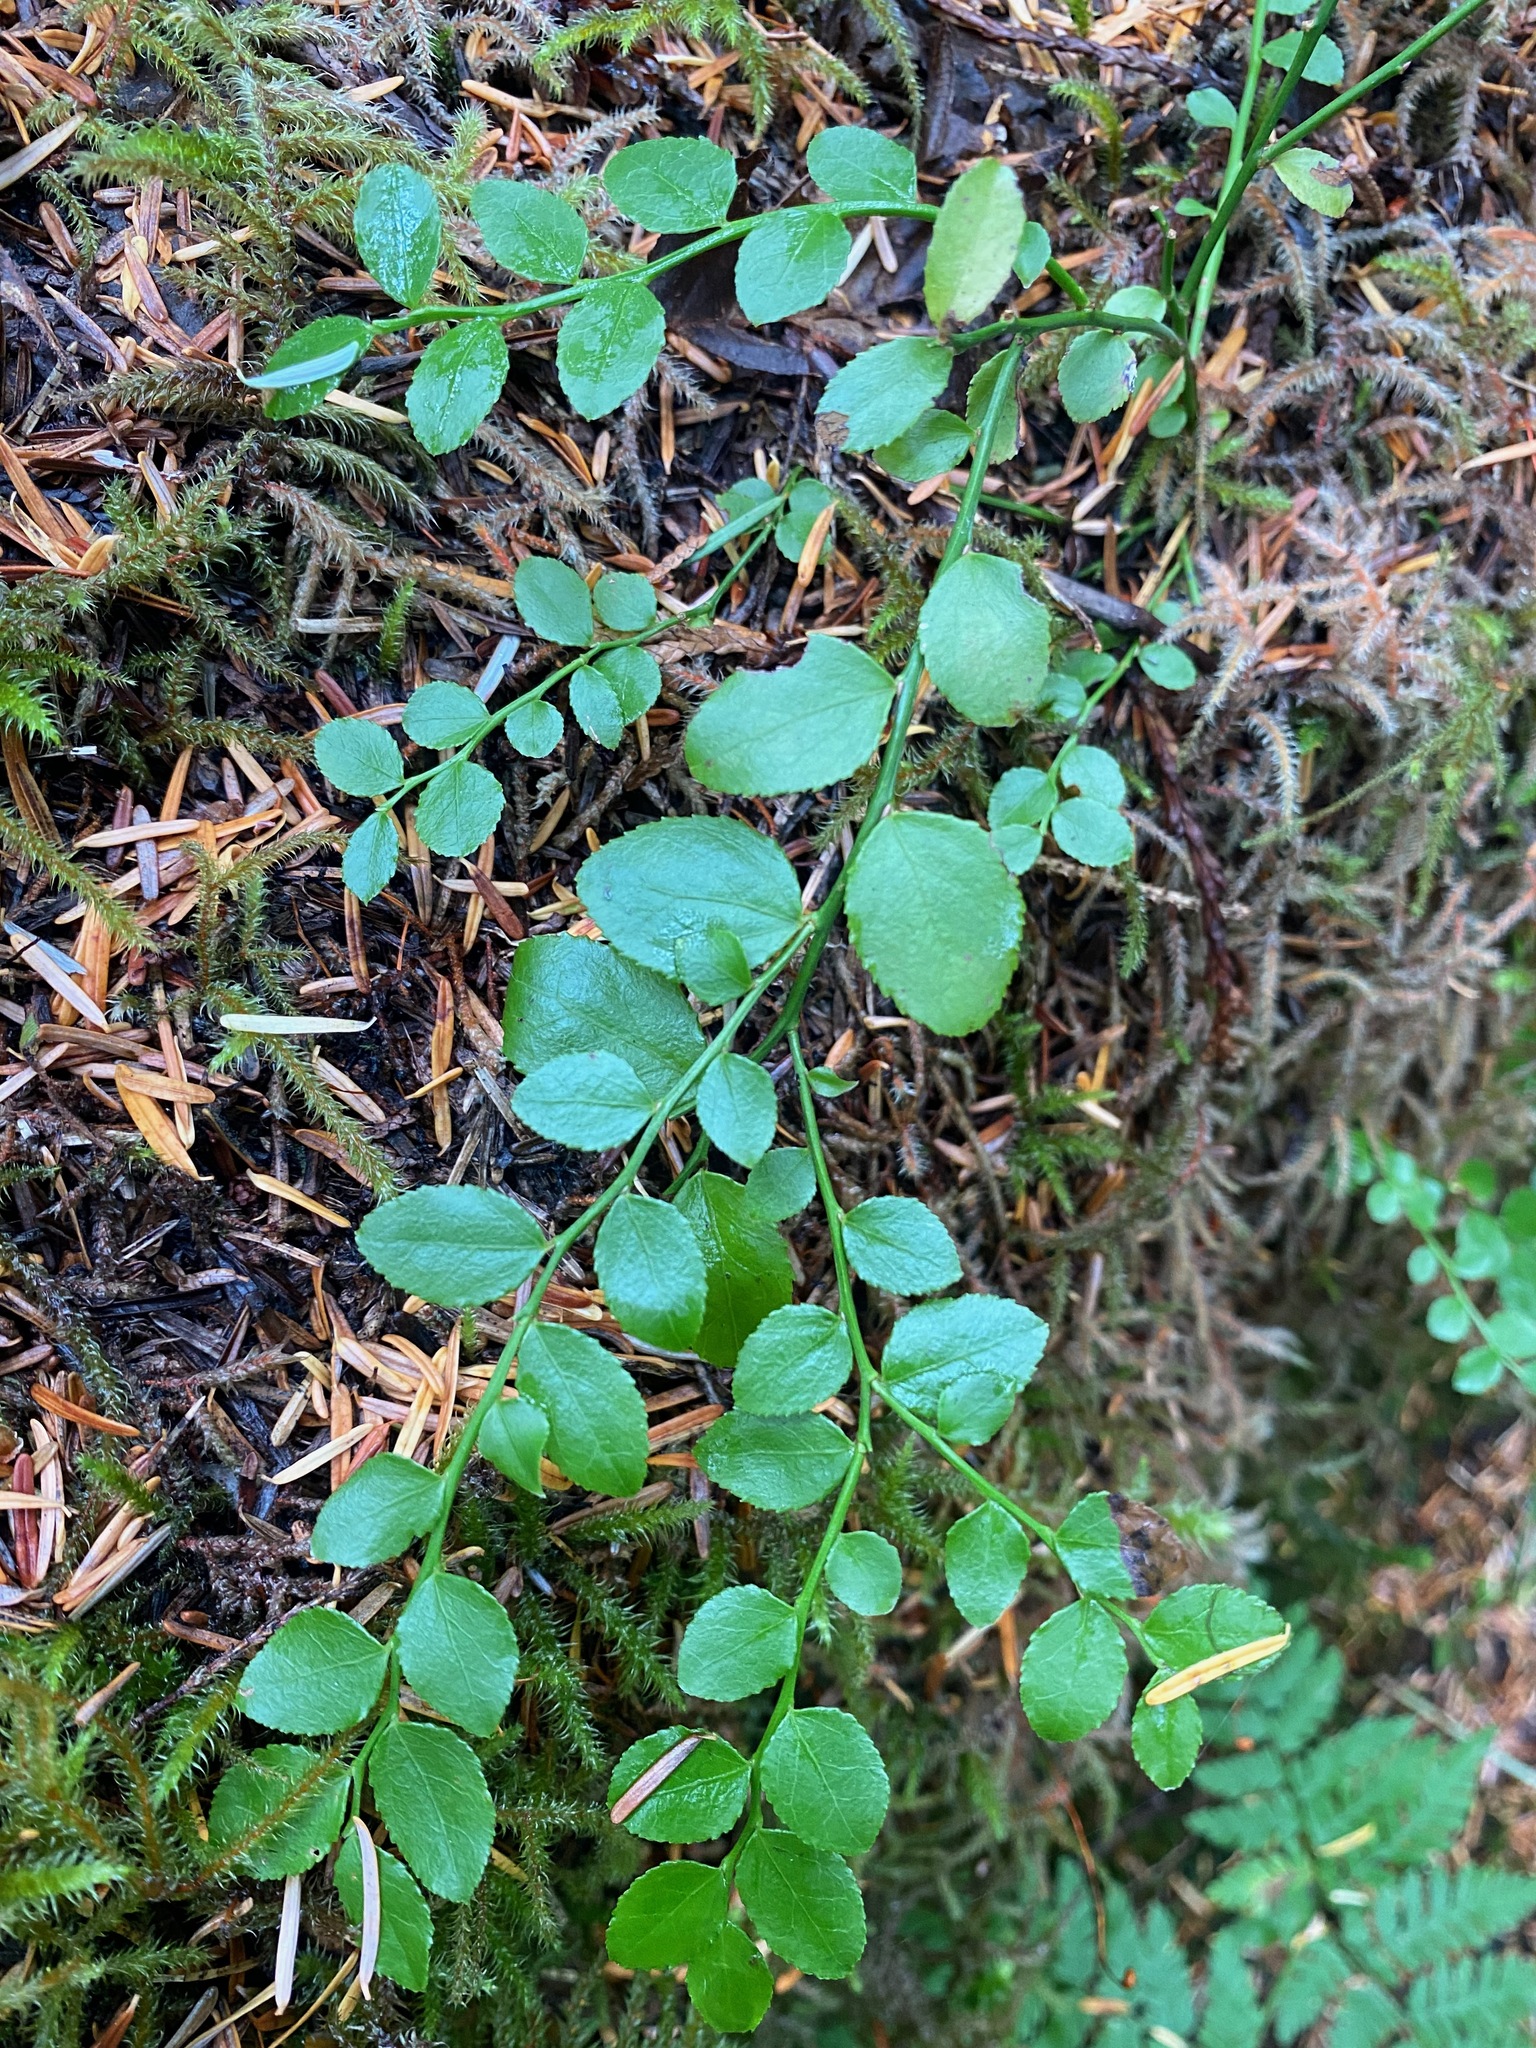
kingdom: Plantae
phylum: Tracheophyta
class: Magnoliopsida
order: Ericales
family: Ericaceae
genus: Vaccinium
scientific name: Vaccinium parvifolium
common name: Red-huckleberry
